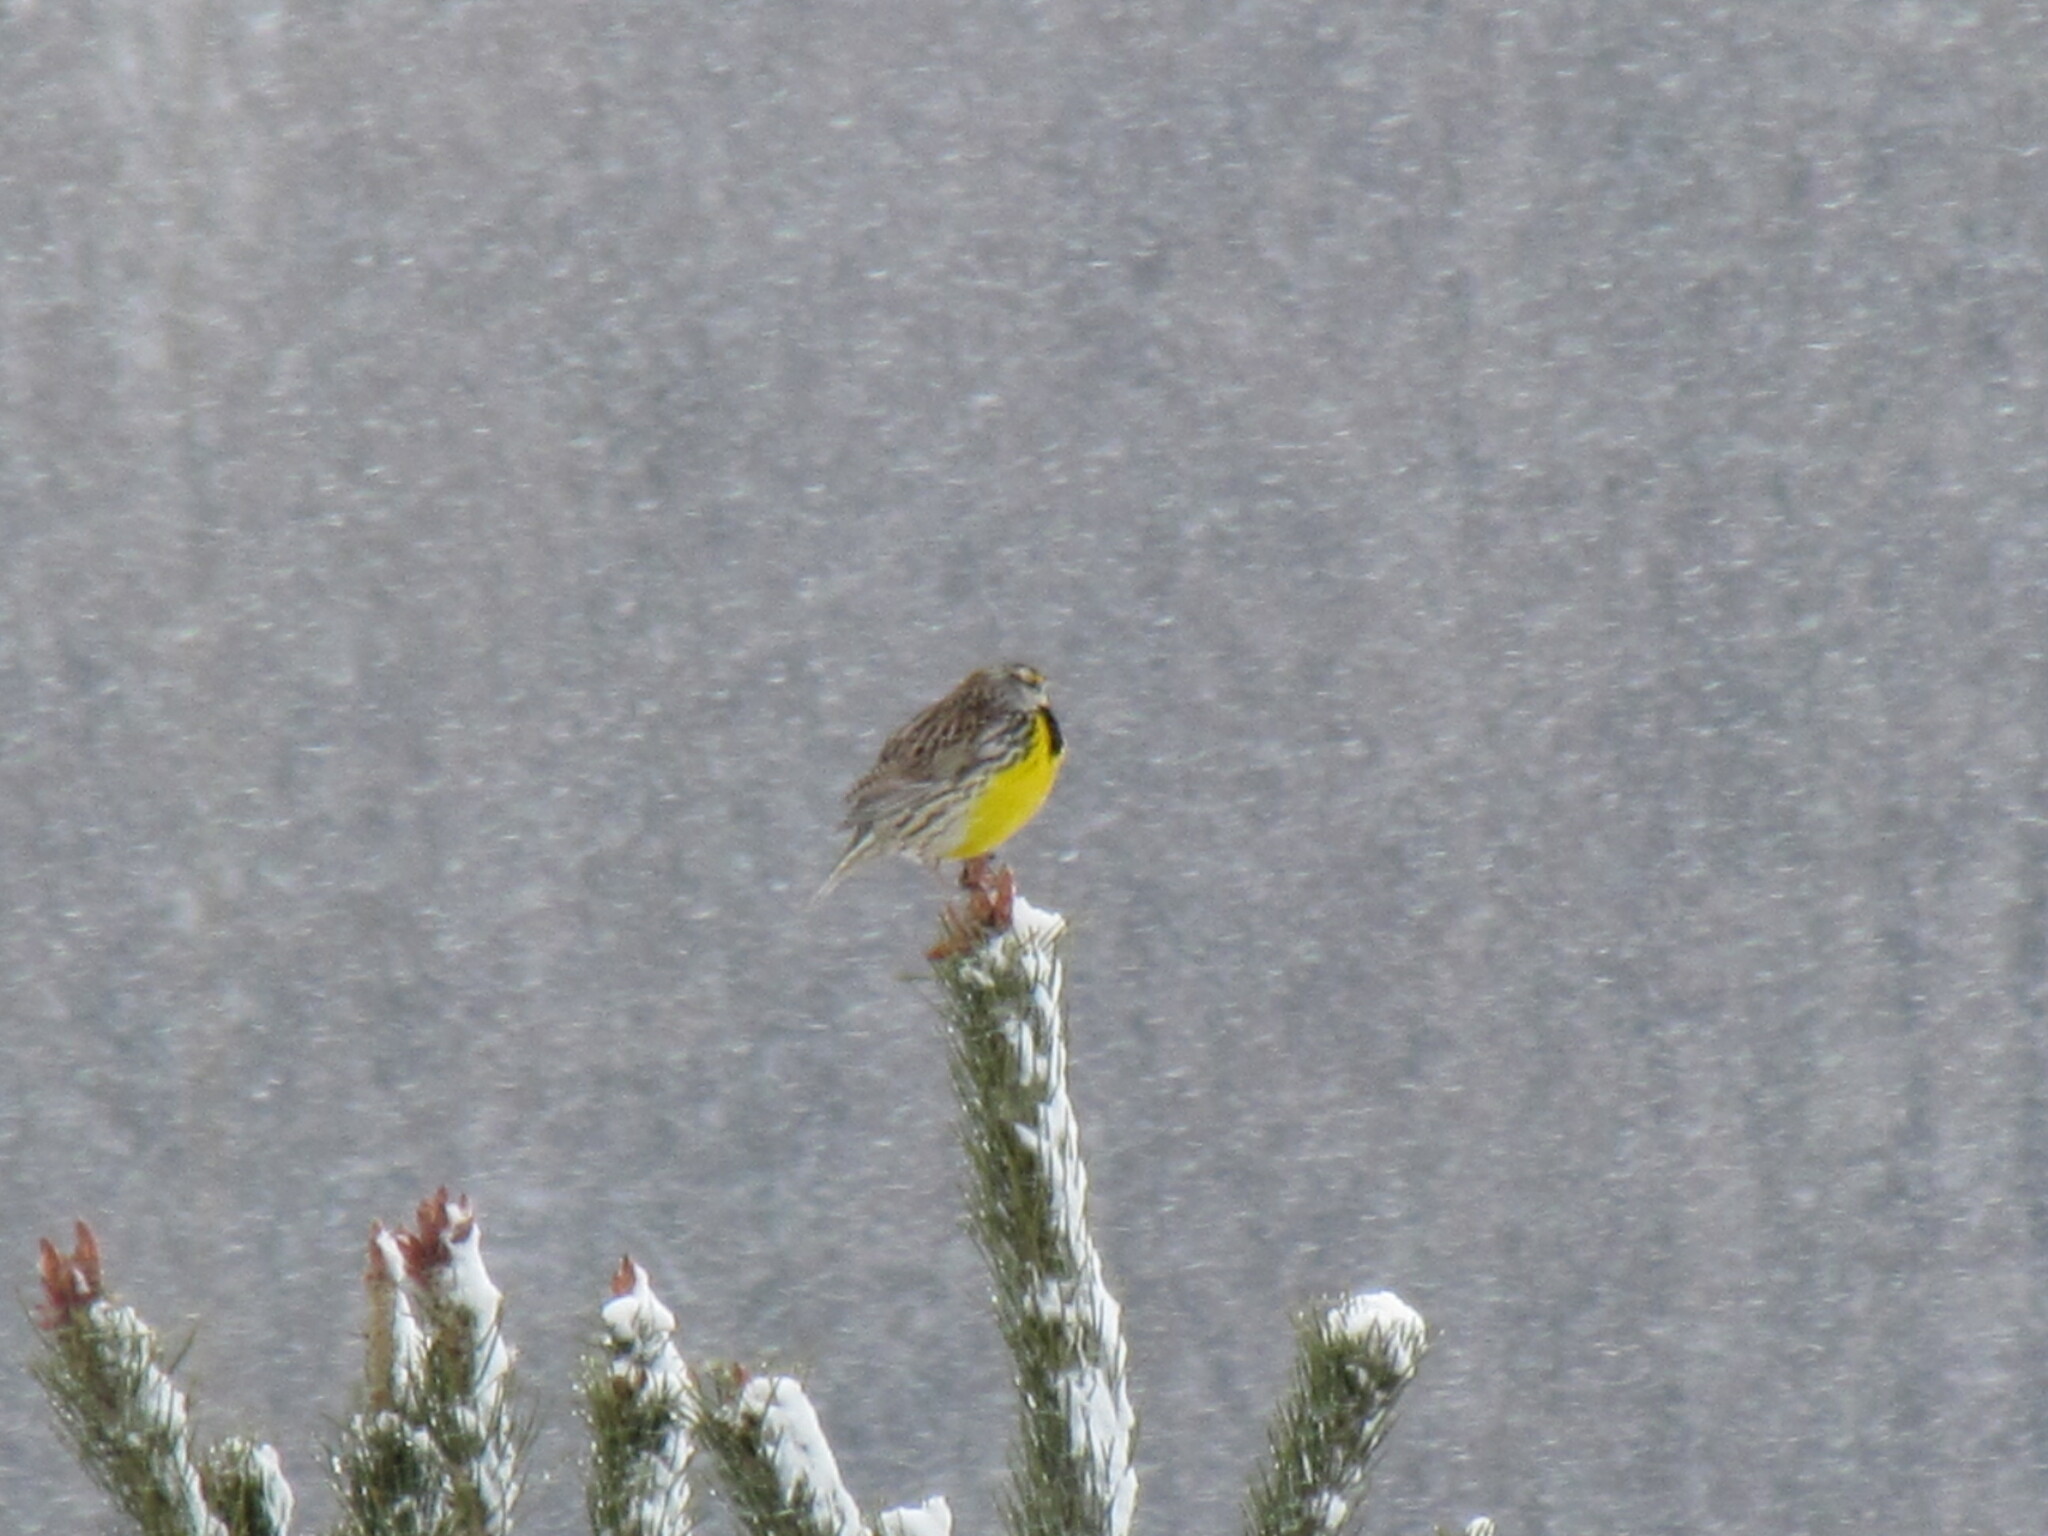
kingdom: Animalia
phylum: Chordata
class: Aves
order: Passeriformes
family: Icteridae
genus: Sturnella
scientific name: Sturnella magna
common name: Eastern meadowlark
